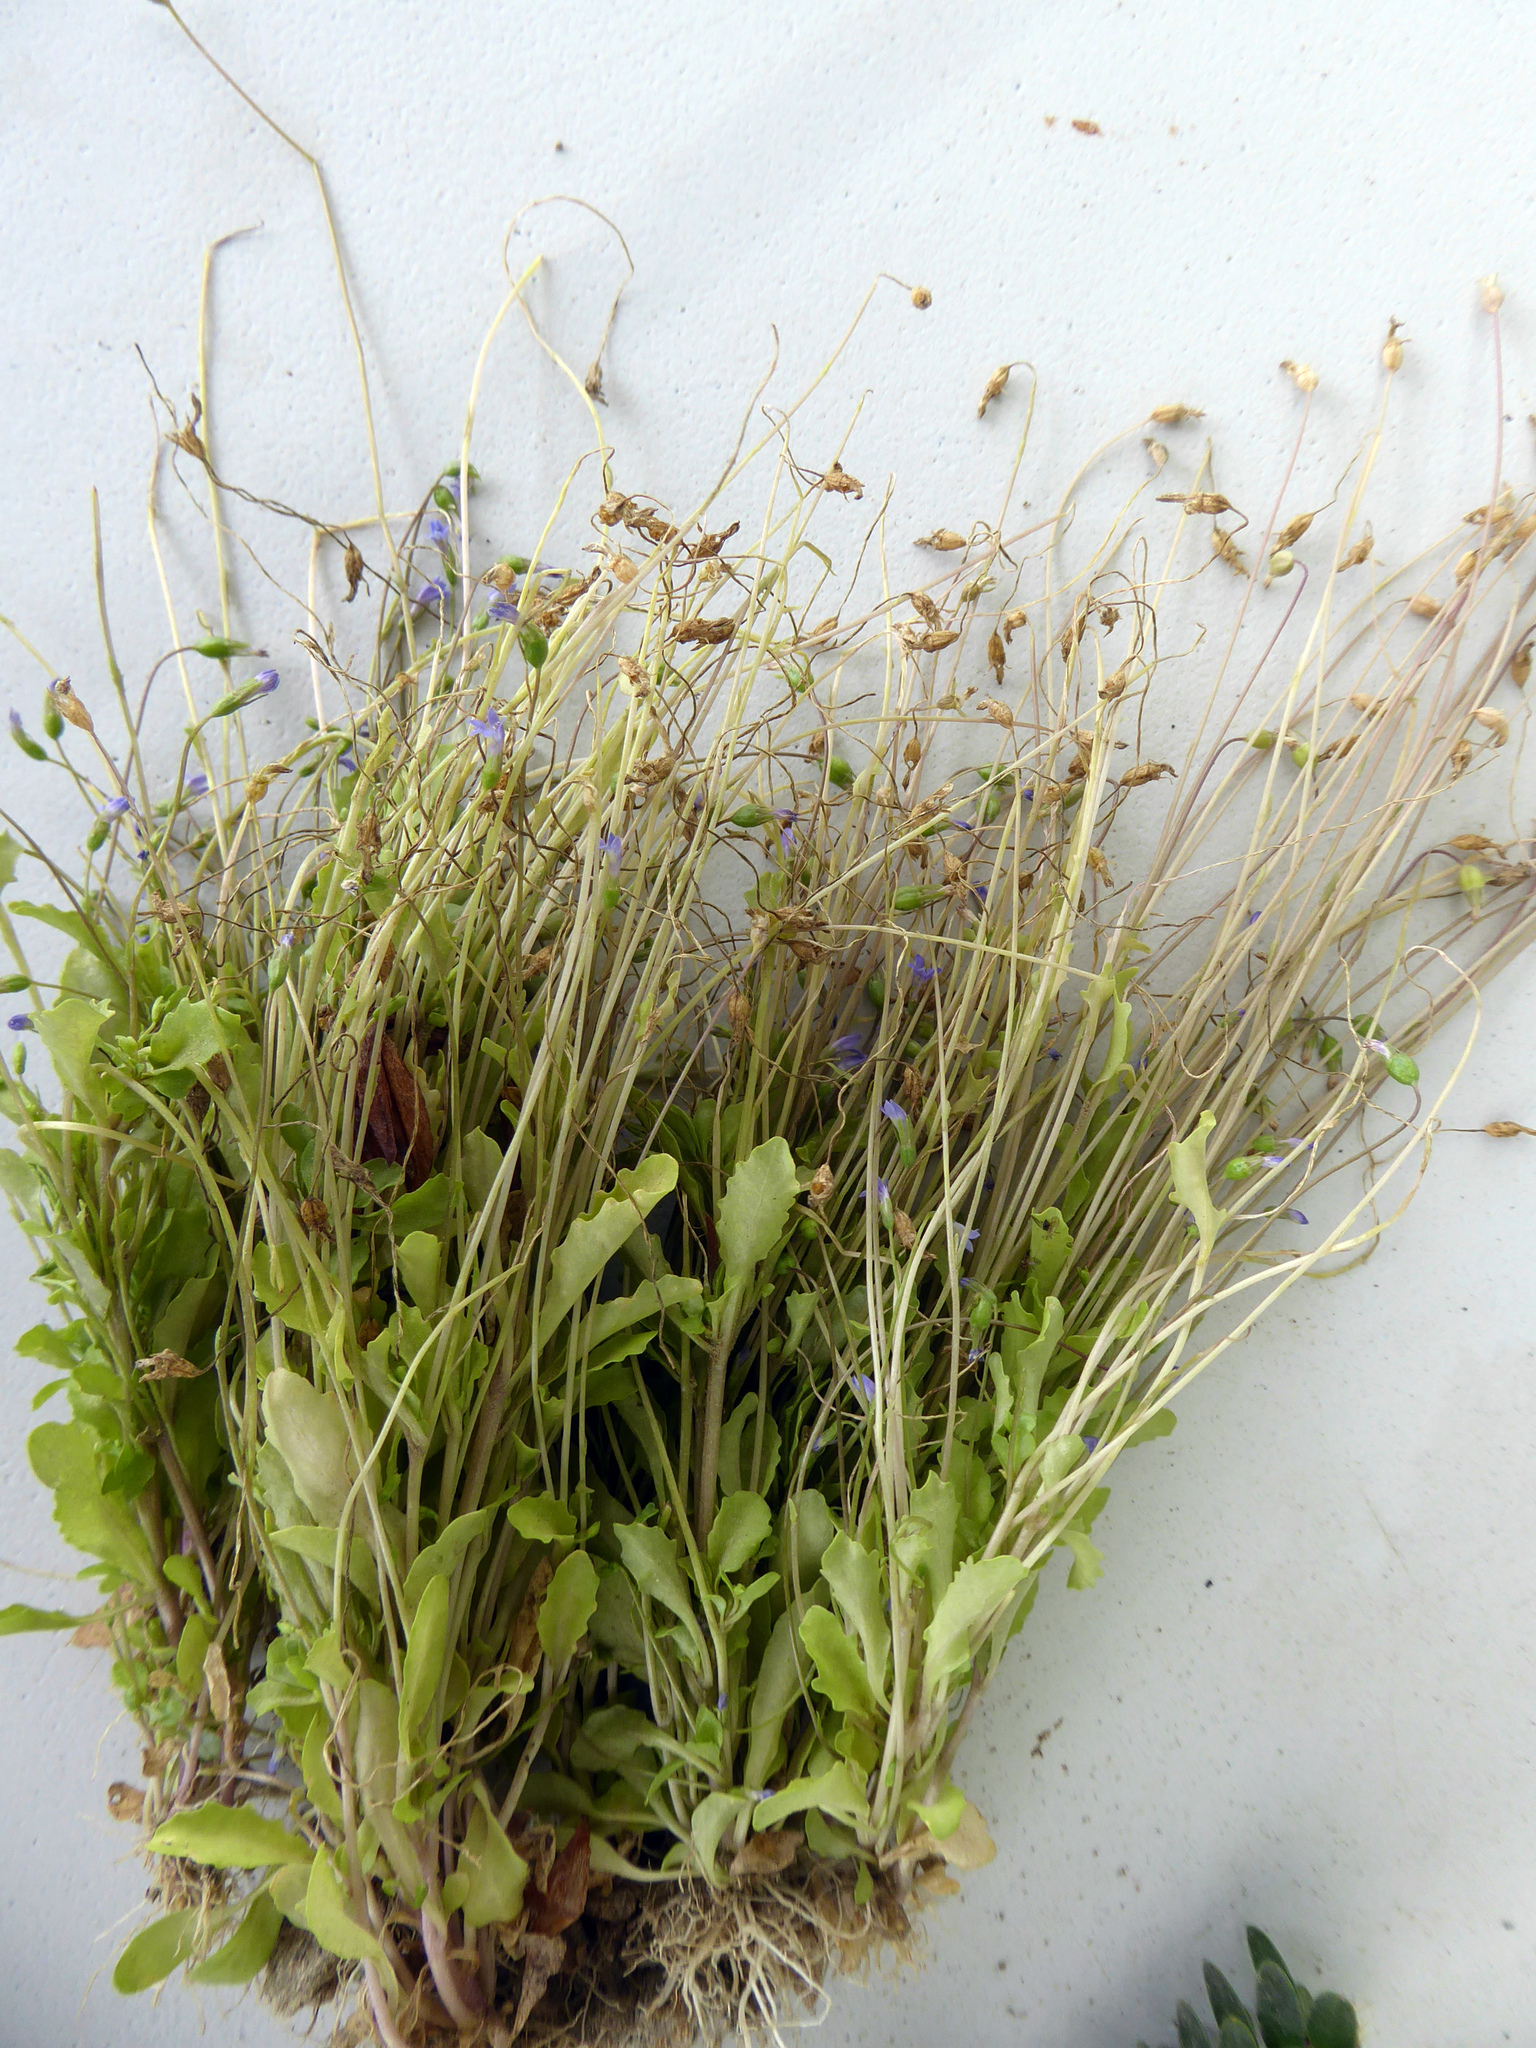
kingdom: Plantae
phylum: Tracheophyta
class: Magnoliopsida
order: Asterales
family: Campanulaceae
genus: Solenopsis
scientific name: Solenopsis laurentia
